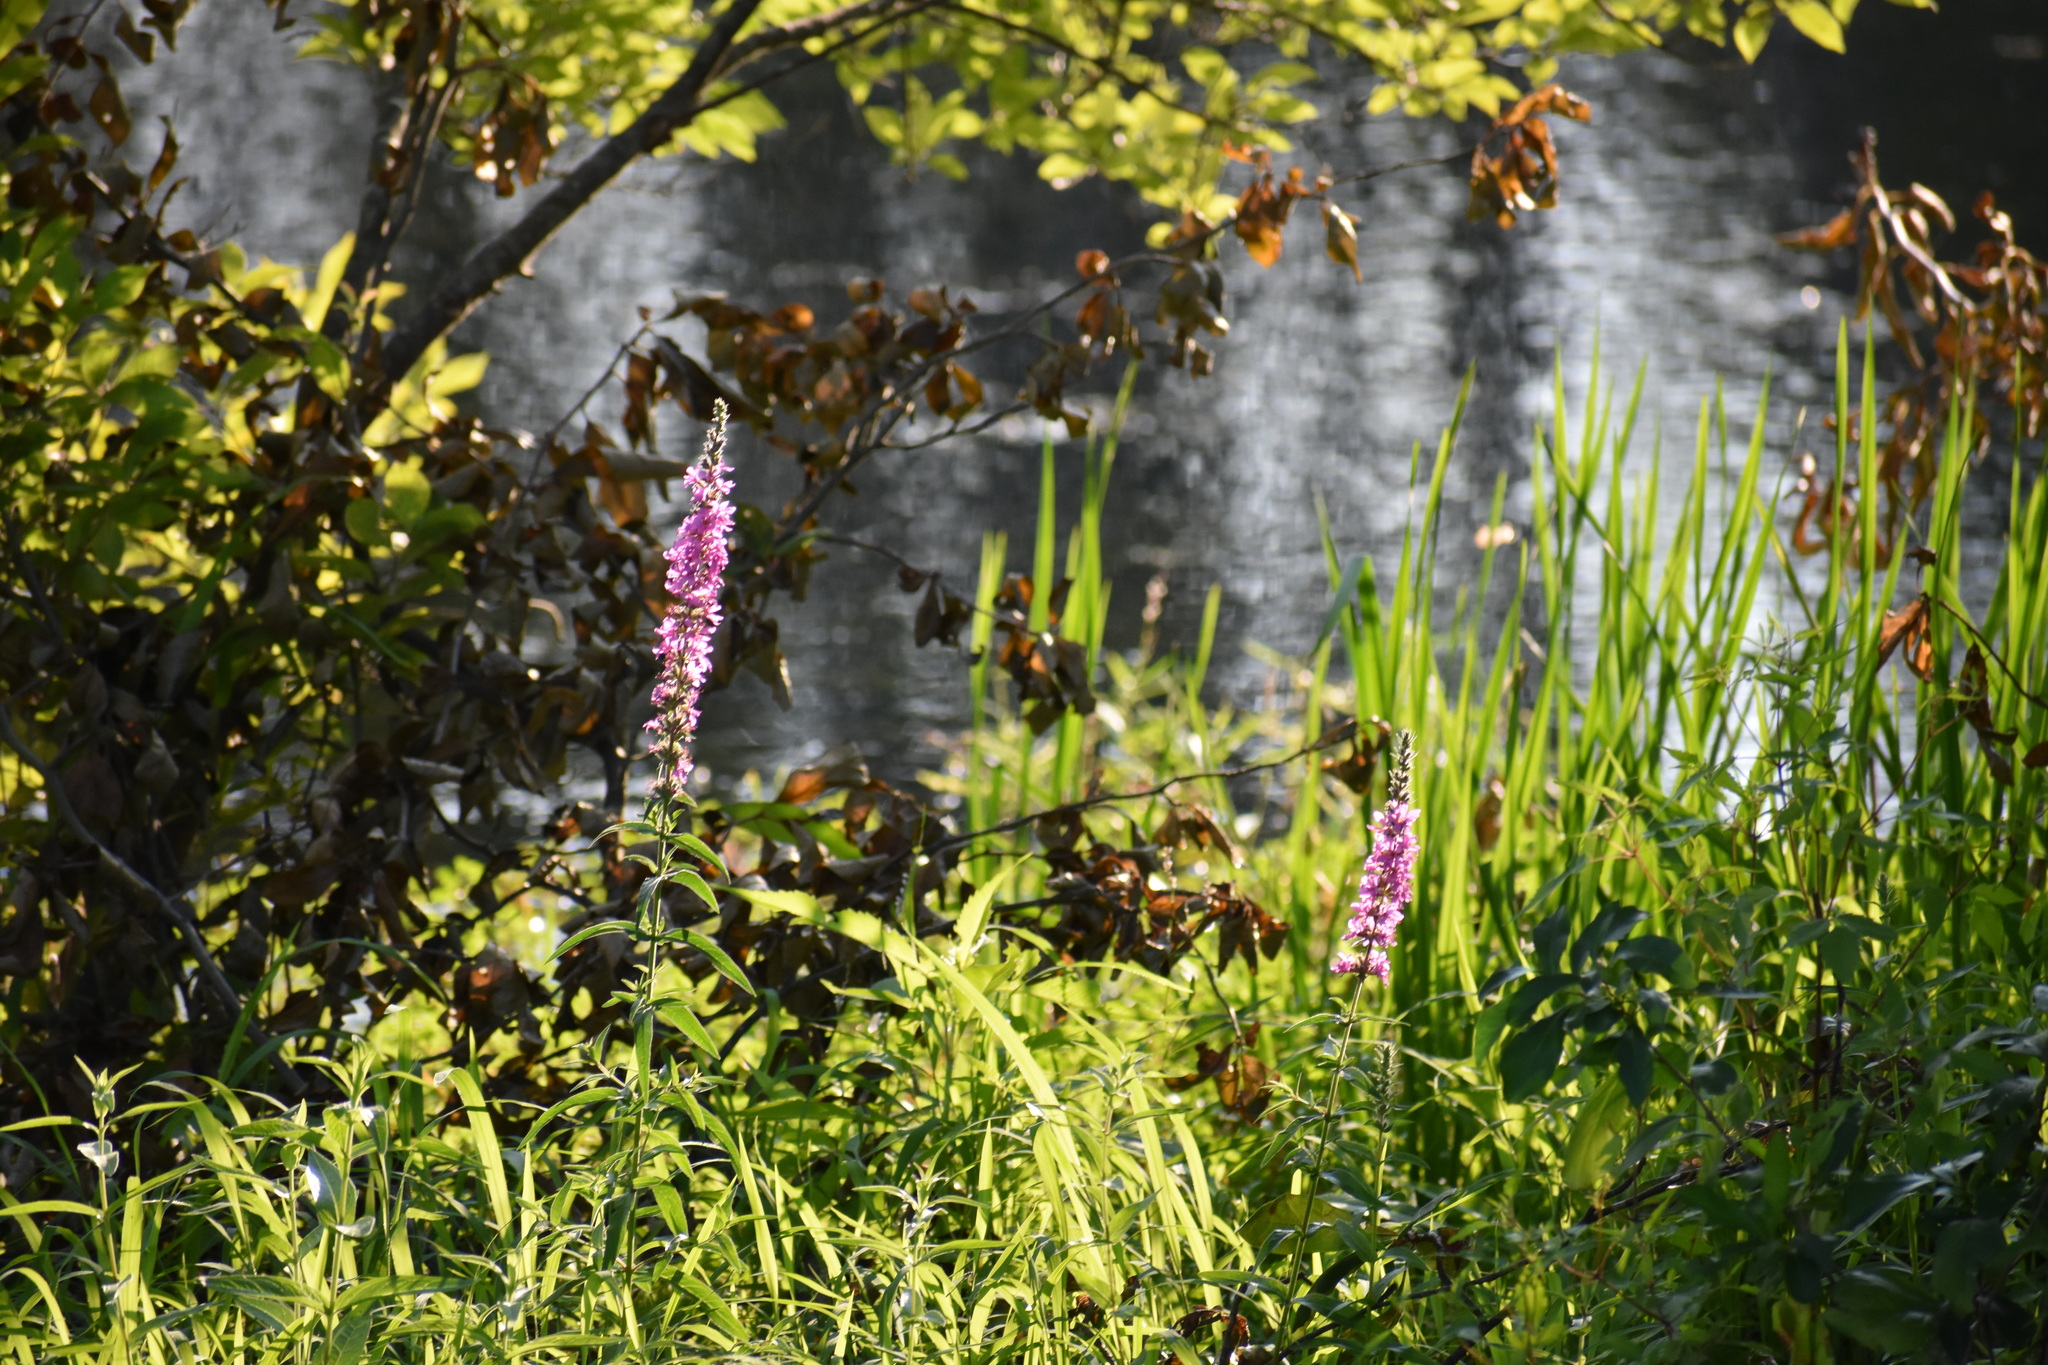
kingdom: Plantae
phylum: Tracheophyta
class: Magnoliopsida
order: Myrtales
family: Lythraceae
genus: Lythrum
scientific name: Lythrum salicaria
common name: Purple loosestrife
